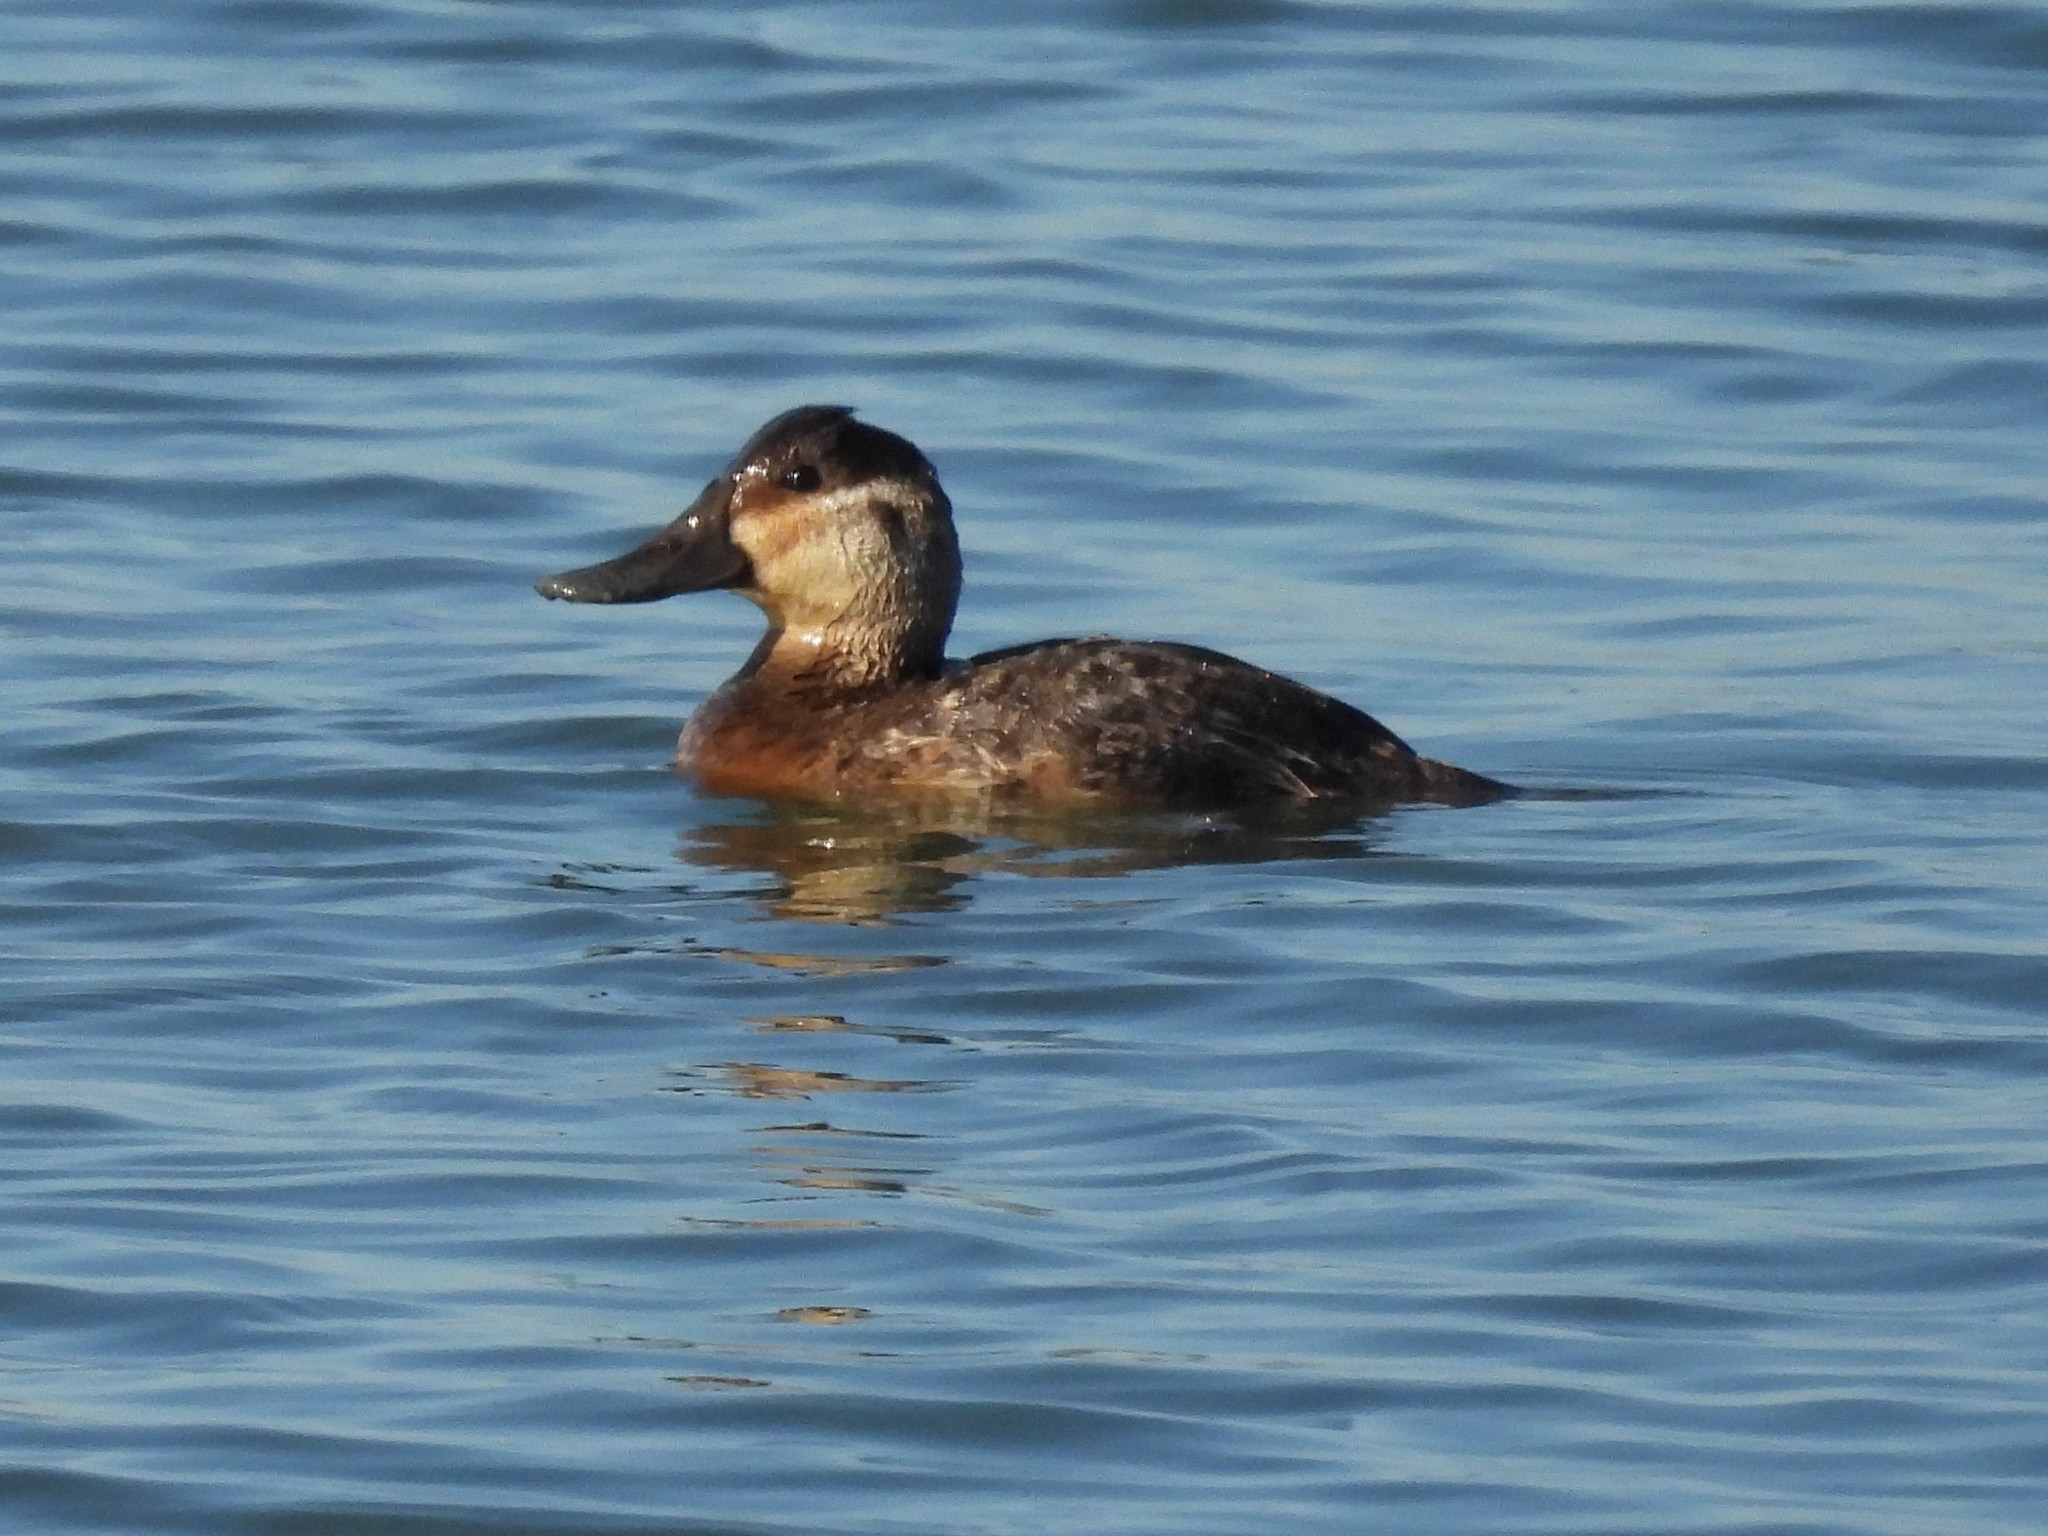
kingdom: Animalia
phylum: Chordata
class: Aves
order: Anseriformes
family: Anatidae
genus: Oxyura
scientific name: Oxyura jamaicensis
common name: Ruddy duck
